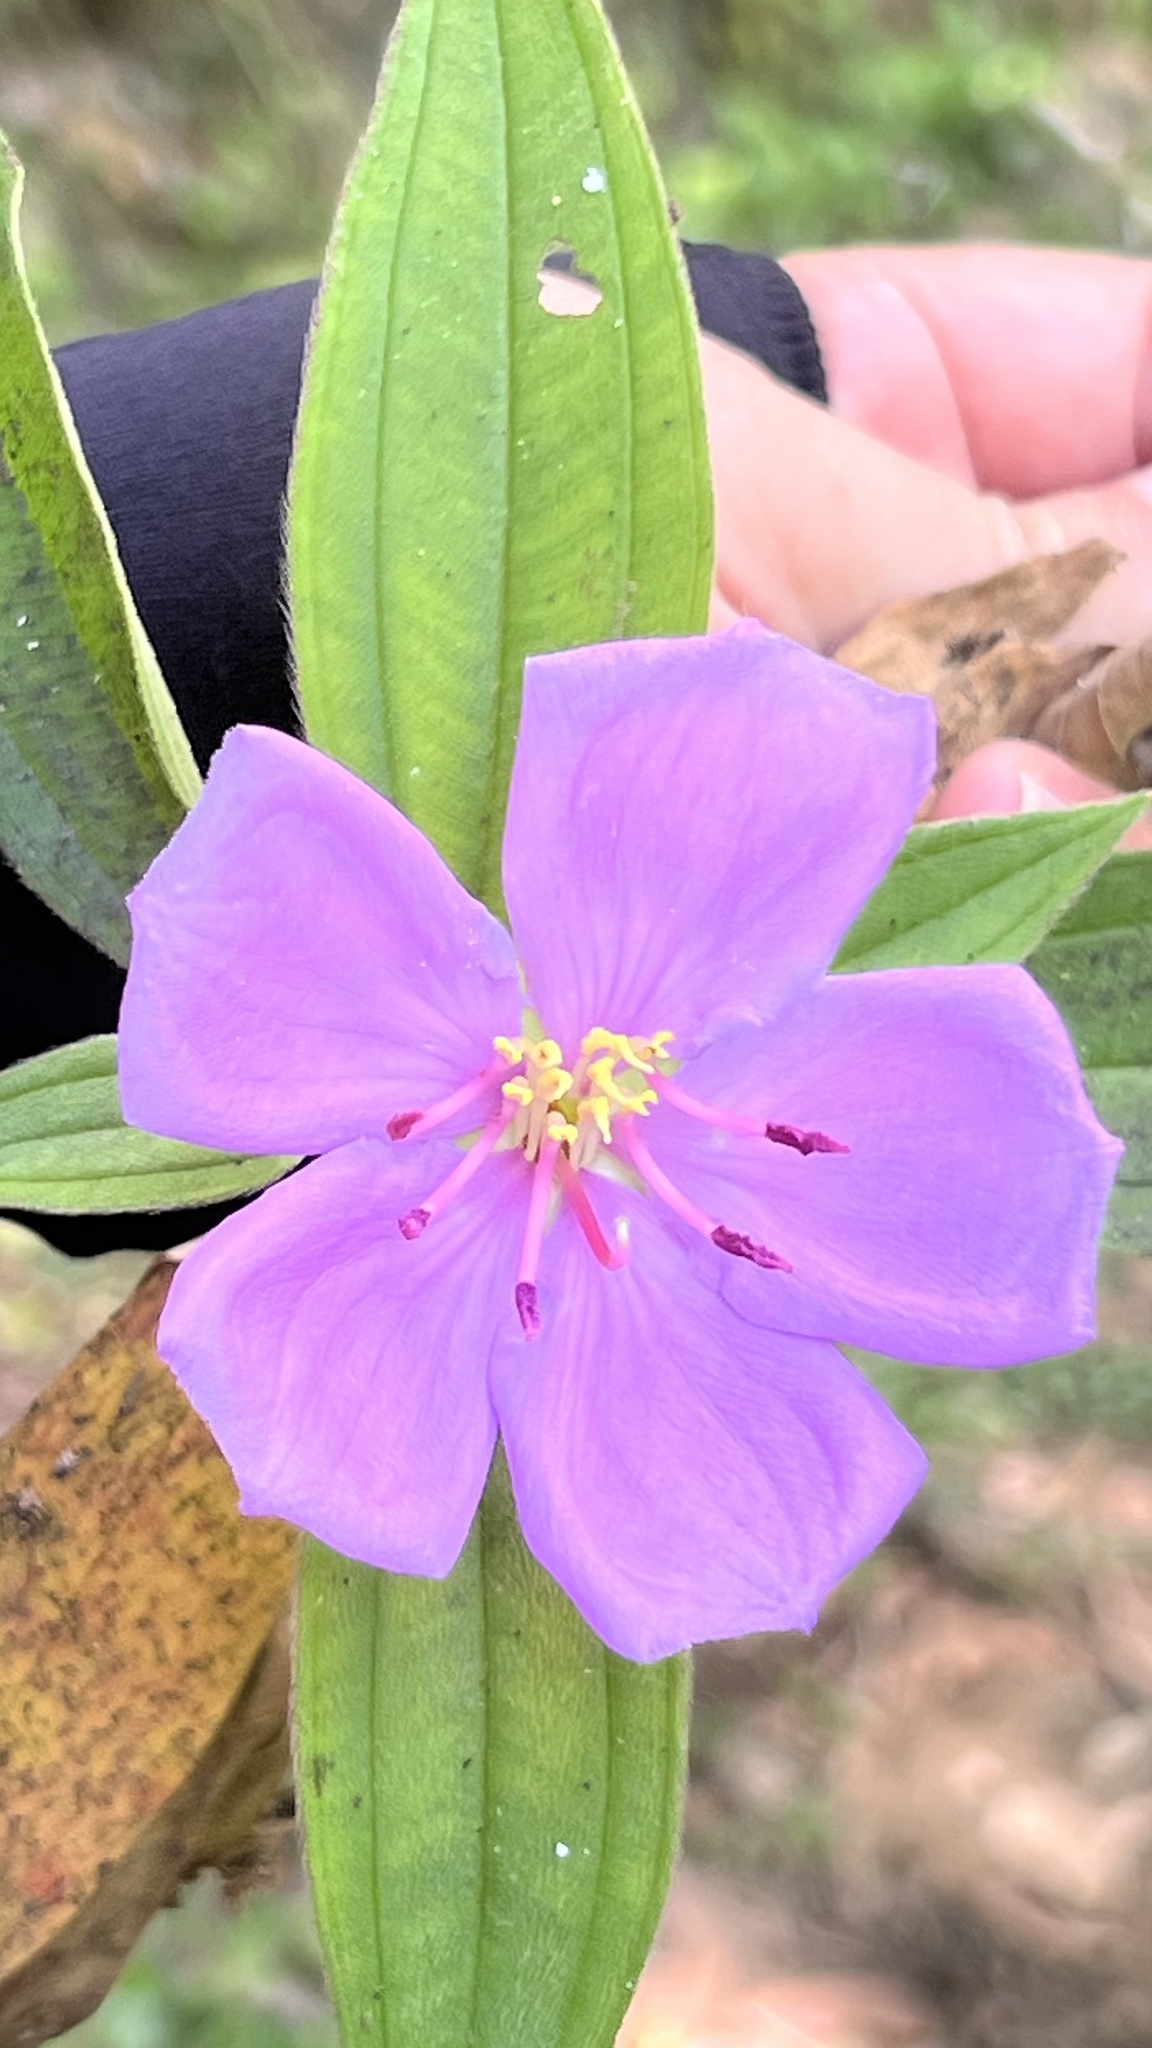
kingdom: Plantae
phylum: Tracheophyta
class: Magnoliopsida
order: Myrtales
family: Melastomataceae
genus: Melastoma
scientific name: Melastoma malabathricum
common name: Indian-rhododendron
